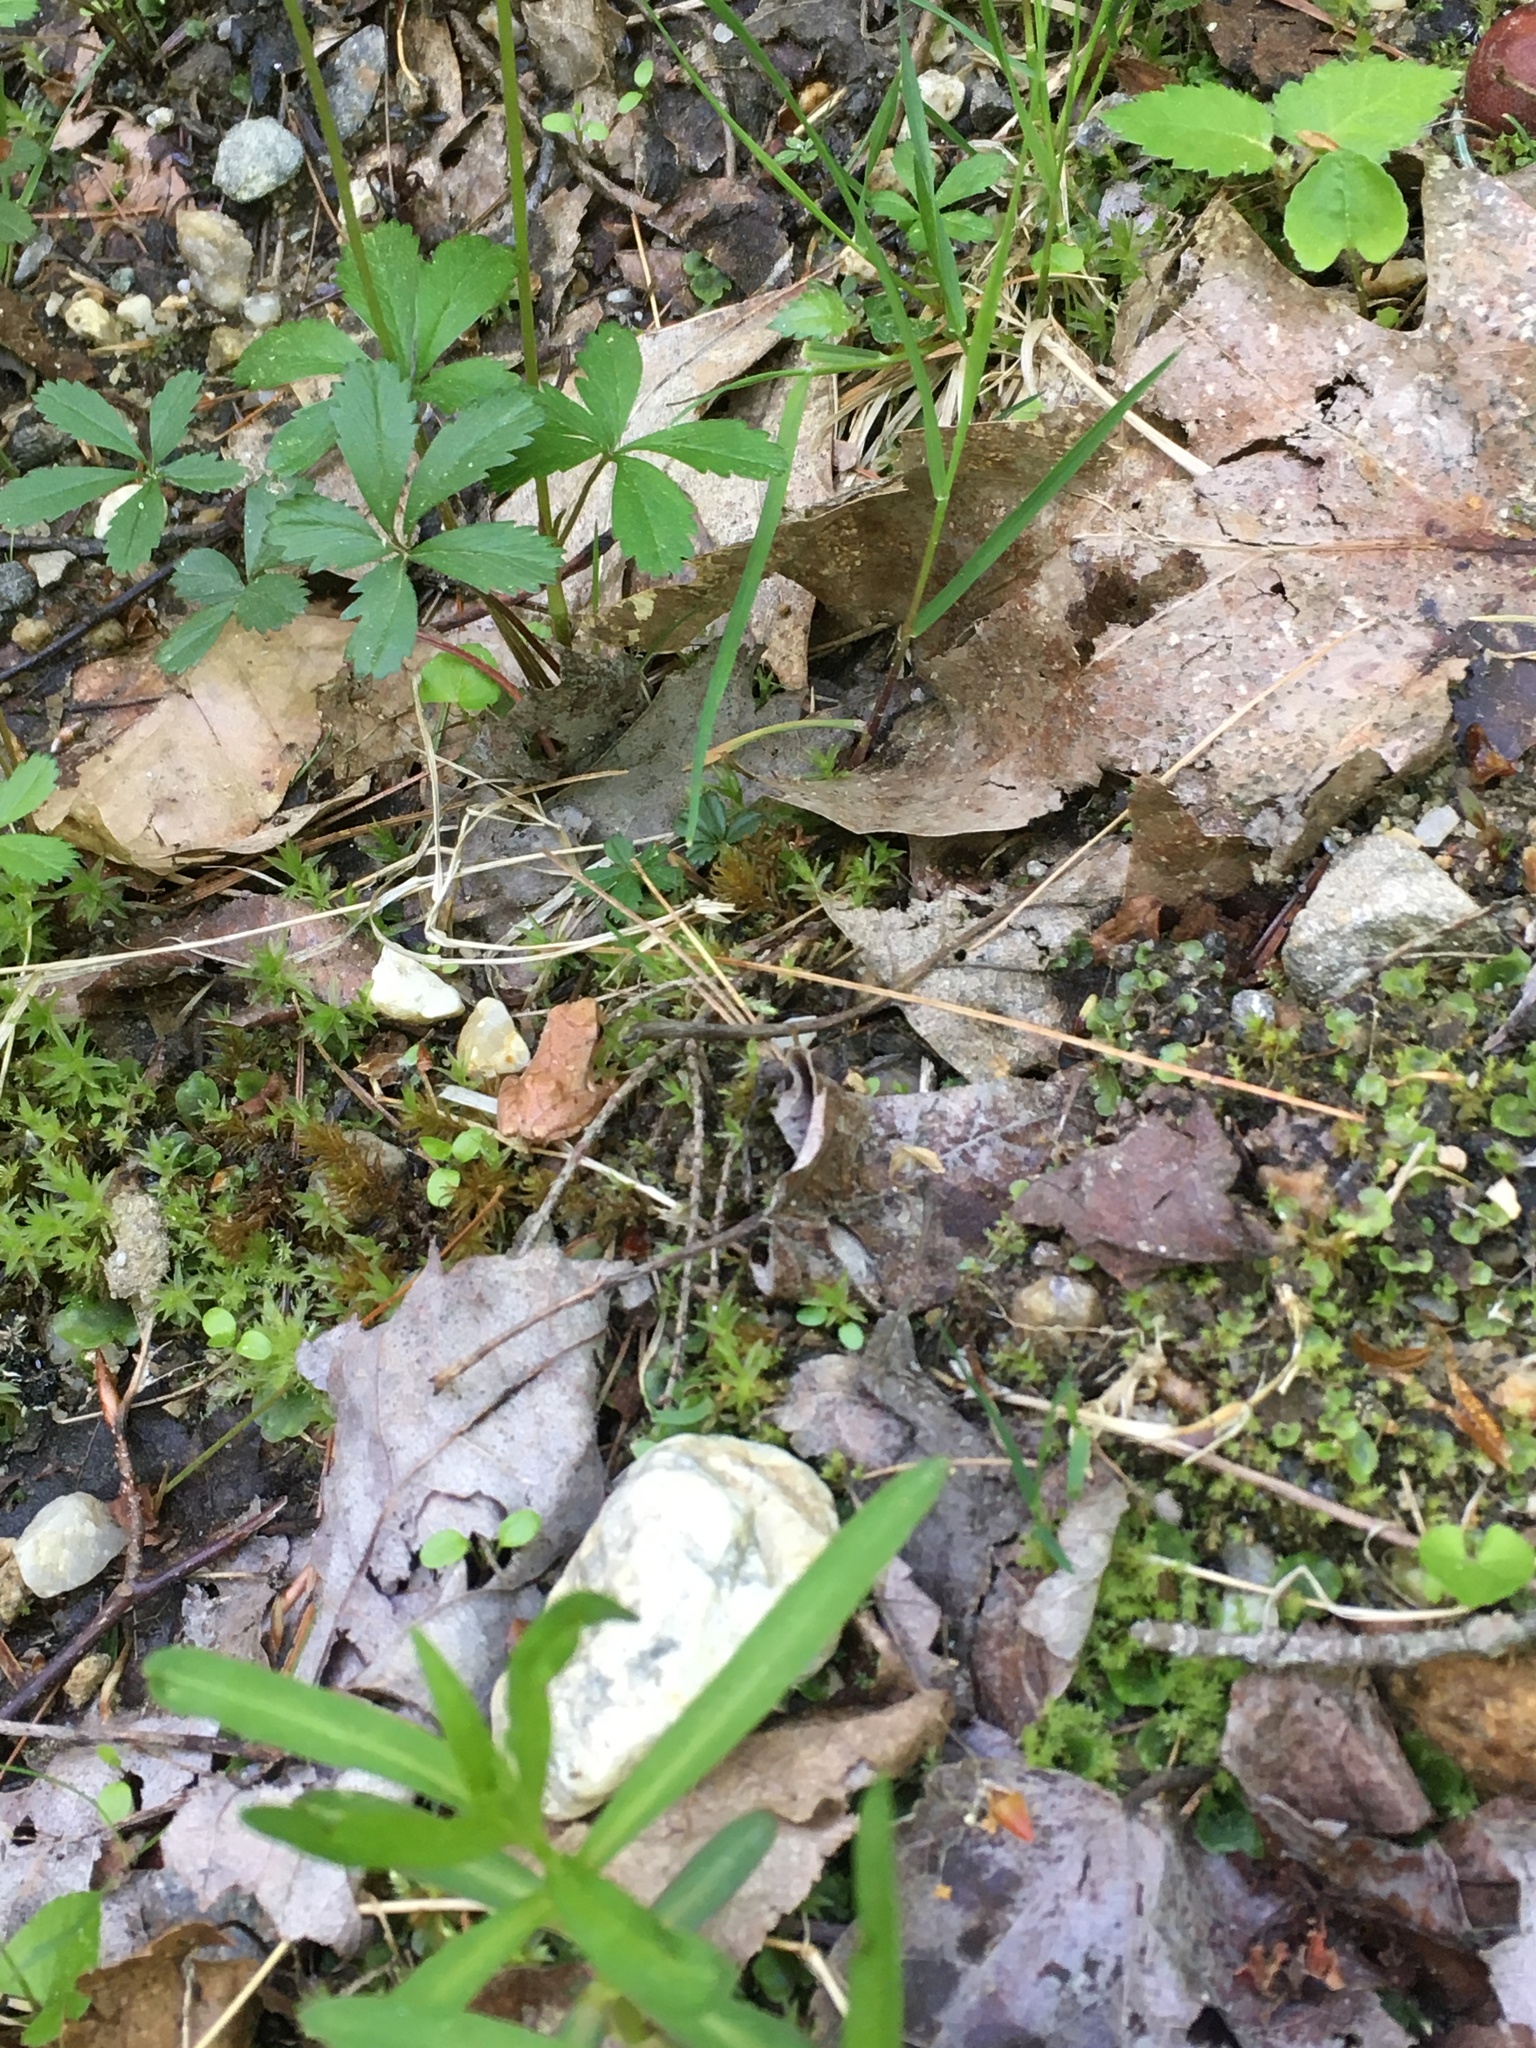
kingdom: Animalia
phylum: Chordata
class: Amphibia
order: Anura
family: Hylidae
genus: Pseudacris
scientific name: Pseudacris crucifer
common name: Spring peeper
